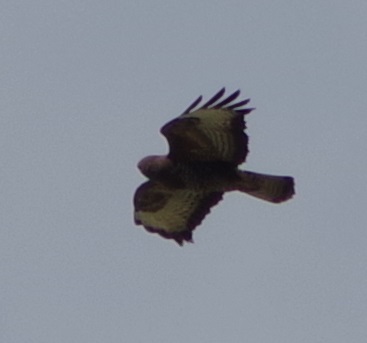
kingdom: Animalia
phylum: Chordata
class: Aves
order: Accipitriformes
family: Accipitridae
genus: Buteo
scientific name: Buteo buteo
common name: Common buzzard
